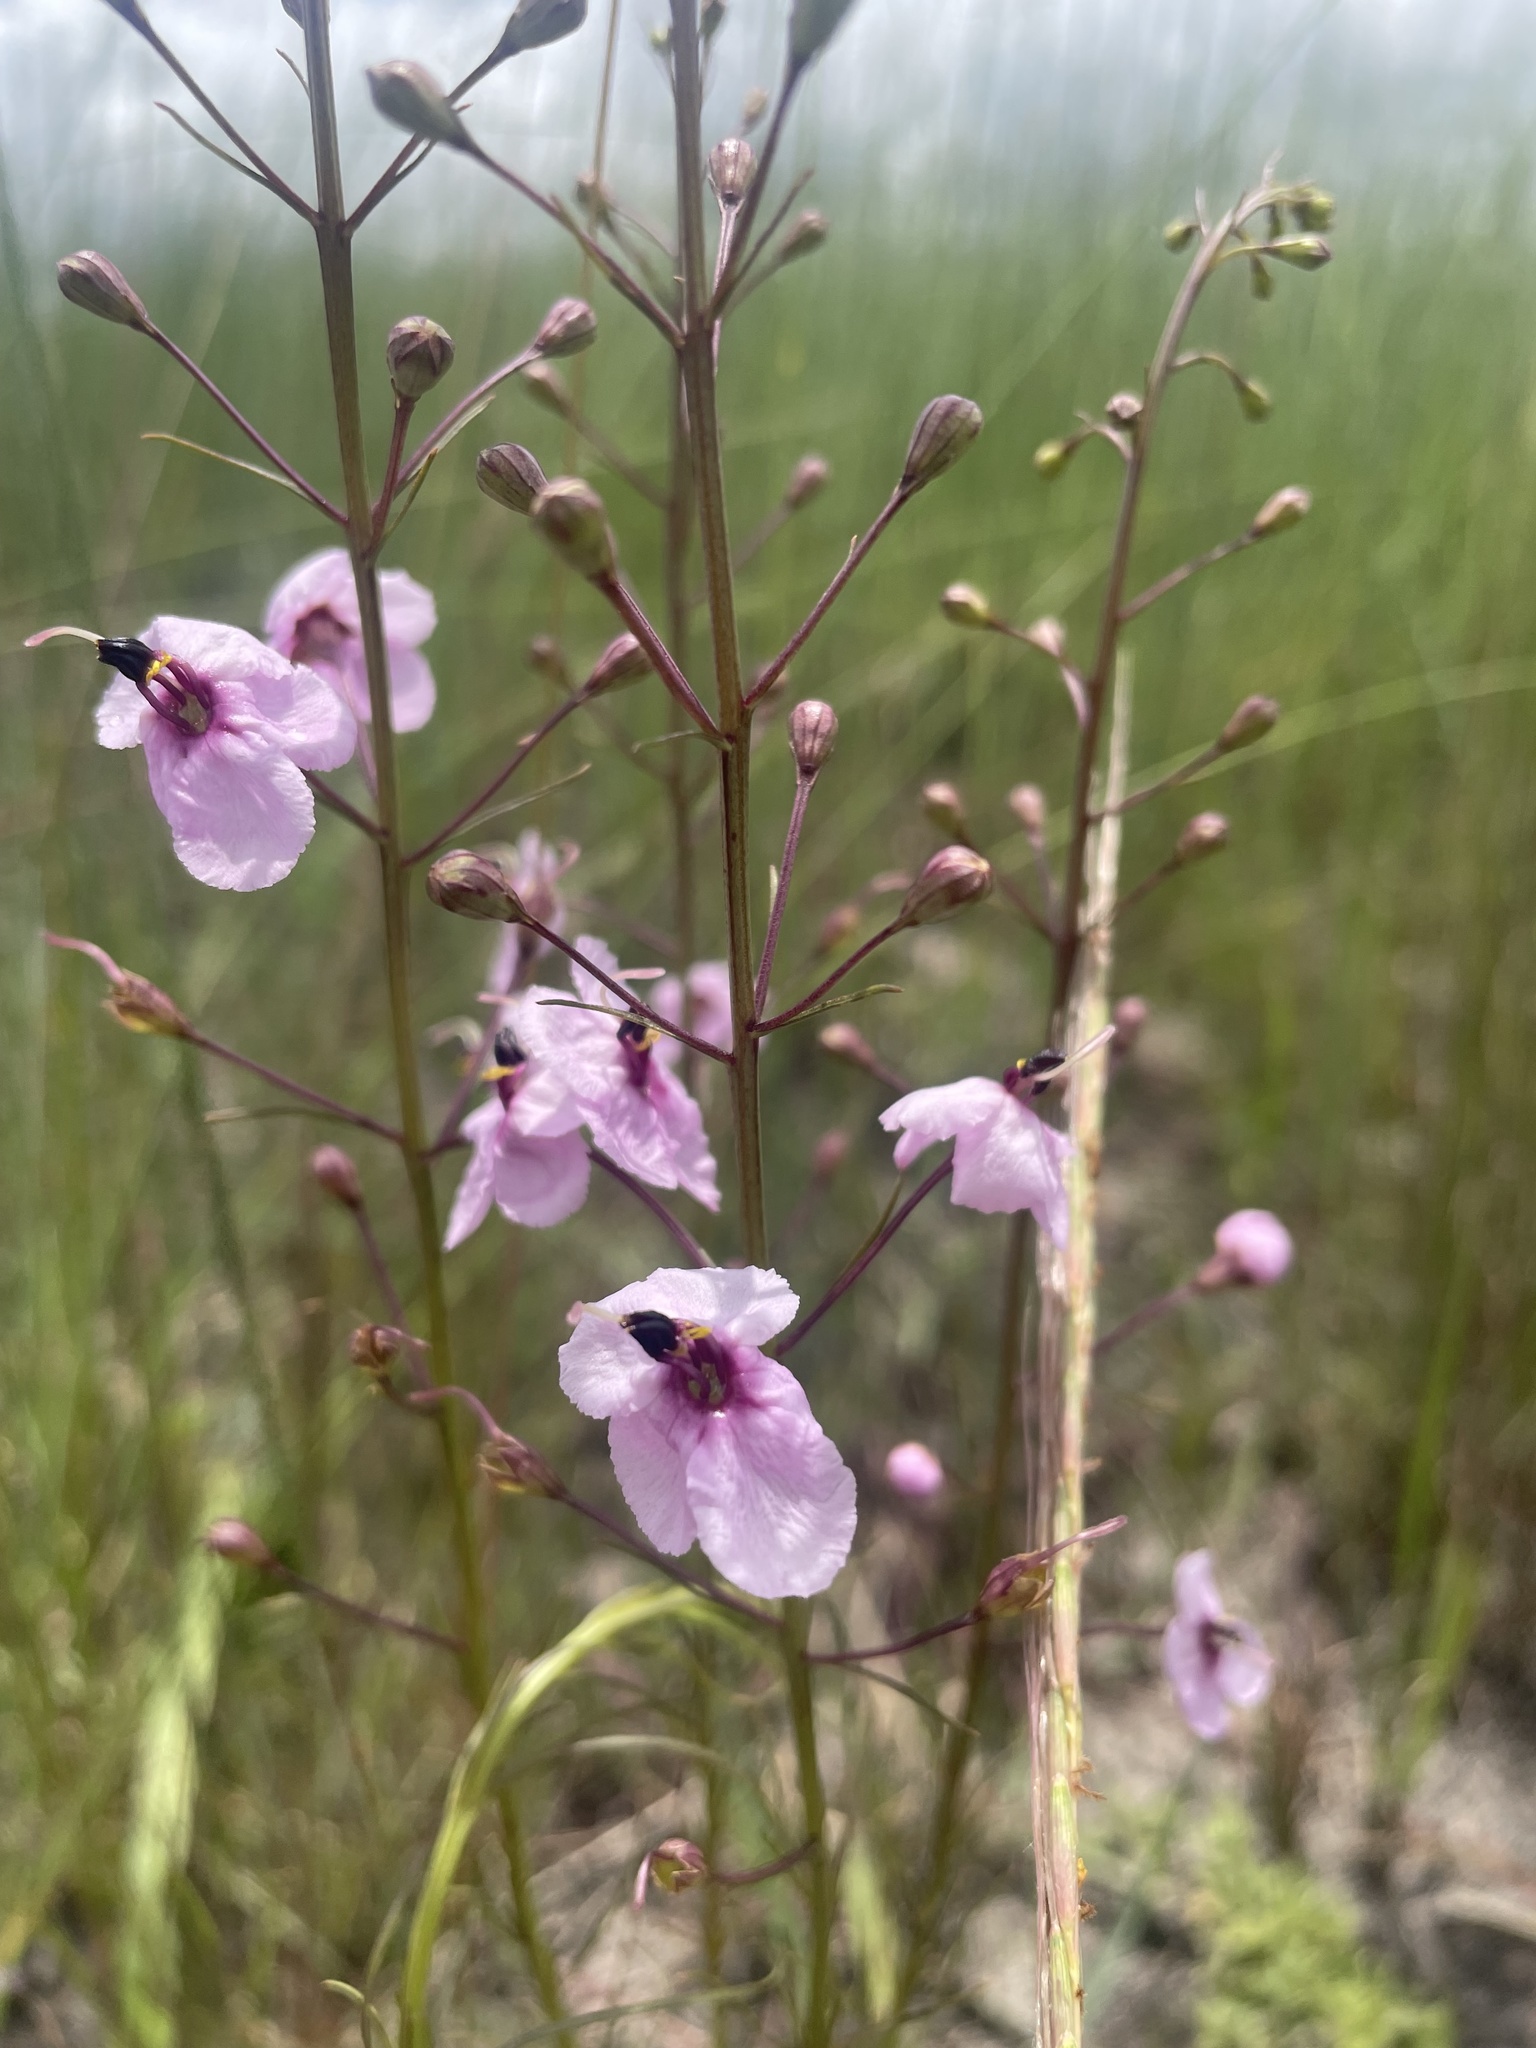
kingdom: Plantae
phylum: Tracheophyta
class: Magnoliopsida
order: Lamiales
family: Orobanchaceae
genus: Sopubia
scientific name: Sopubia mannii
